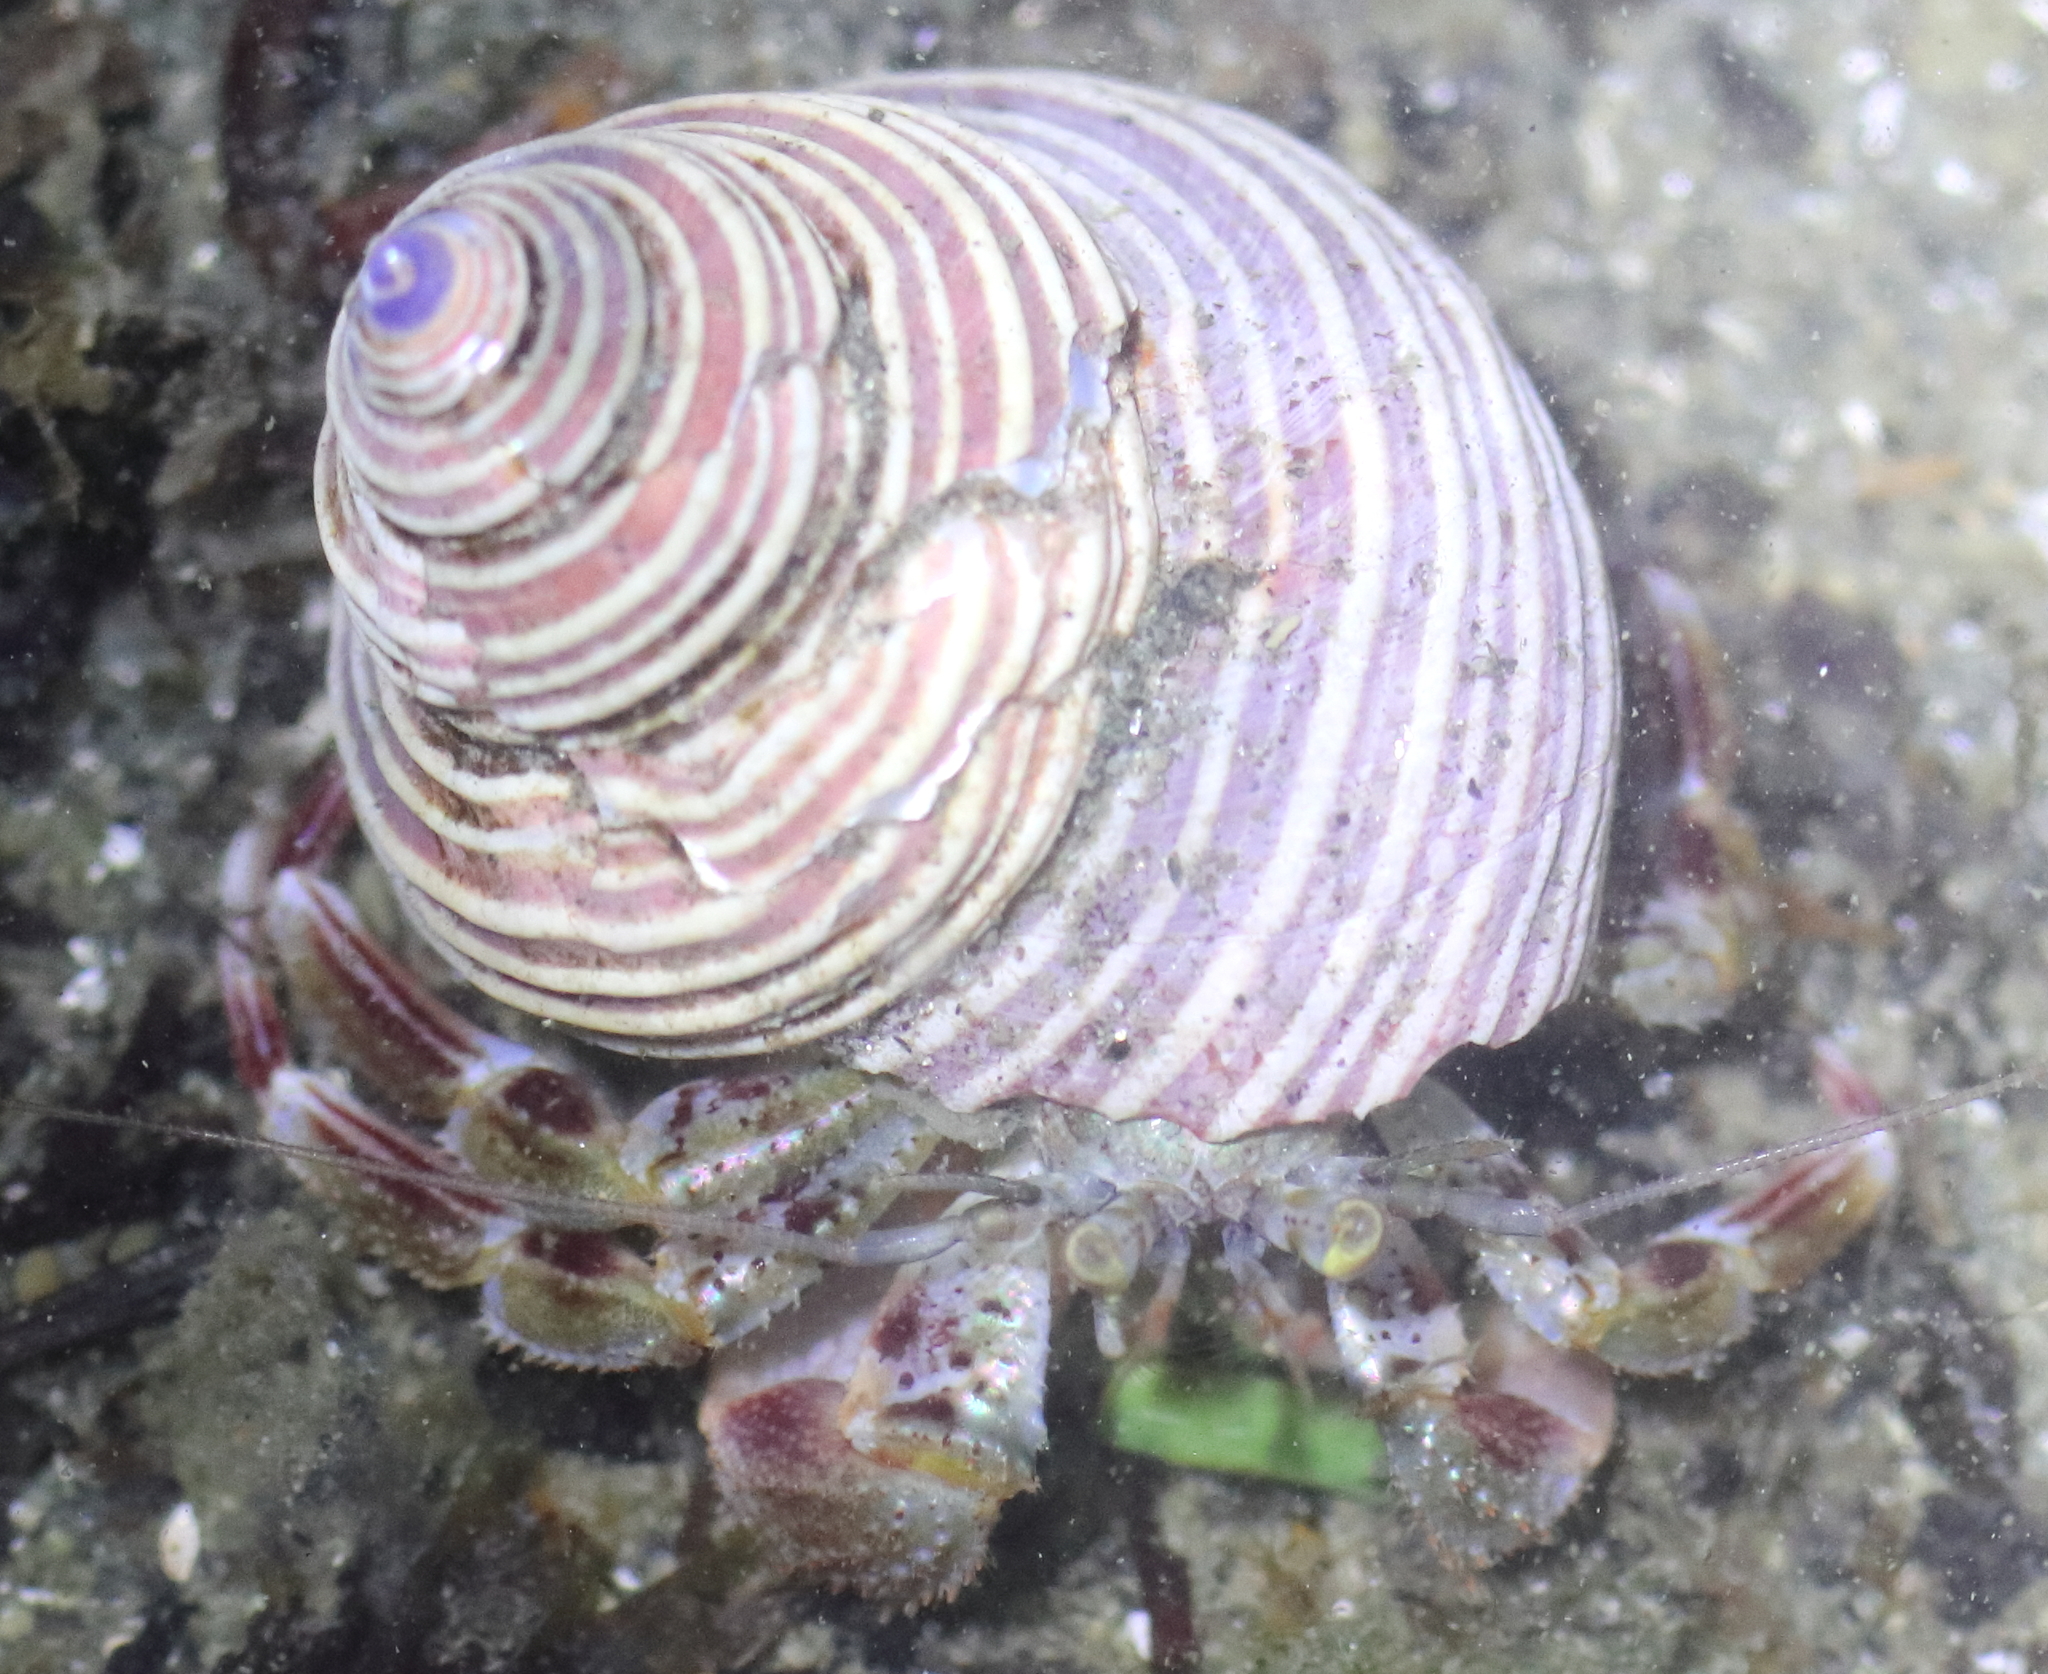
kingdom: Animalia
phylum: Arthropoda
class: Malacostraca
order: Decapoda
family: Paguridae
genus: Pagurus
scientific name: Pagurus ochotensis
